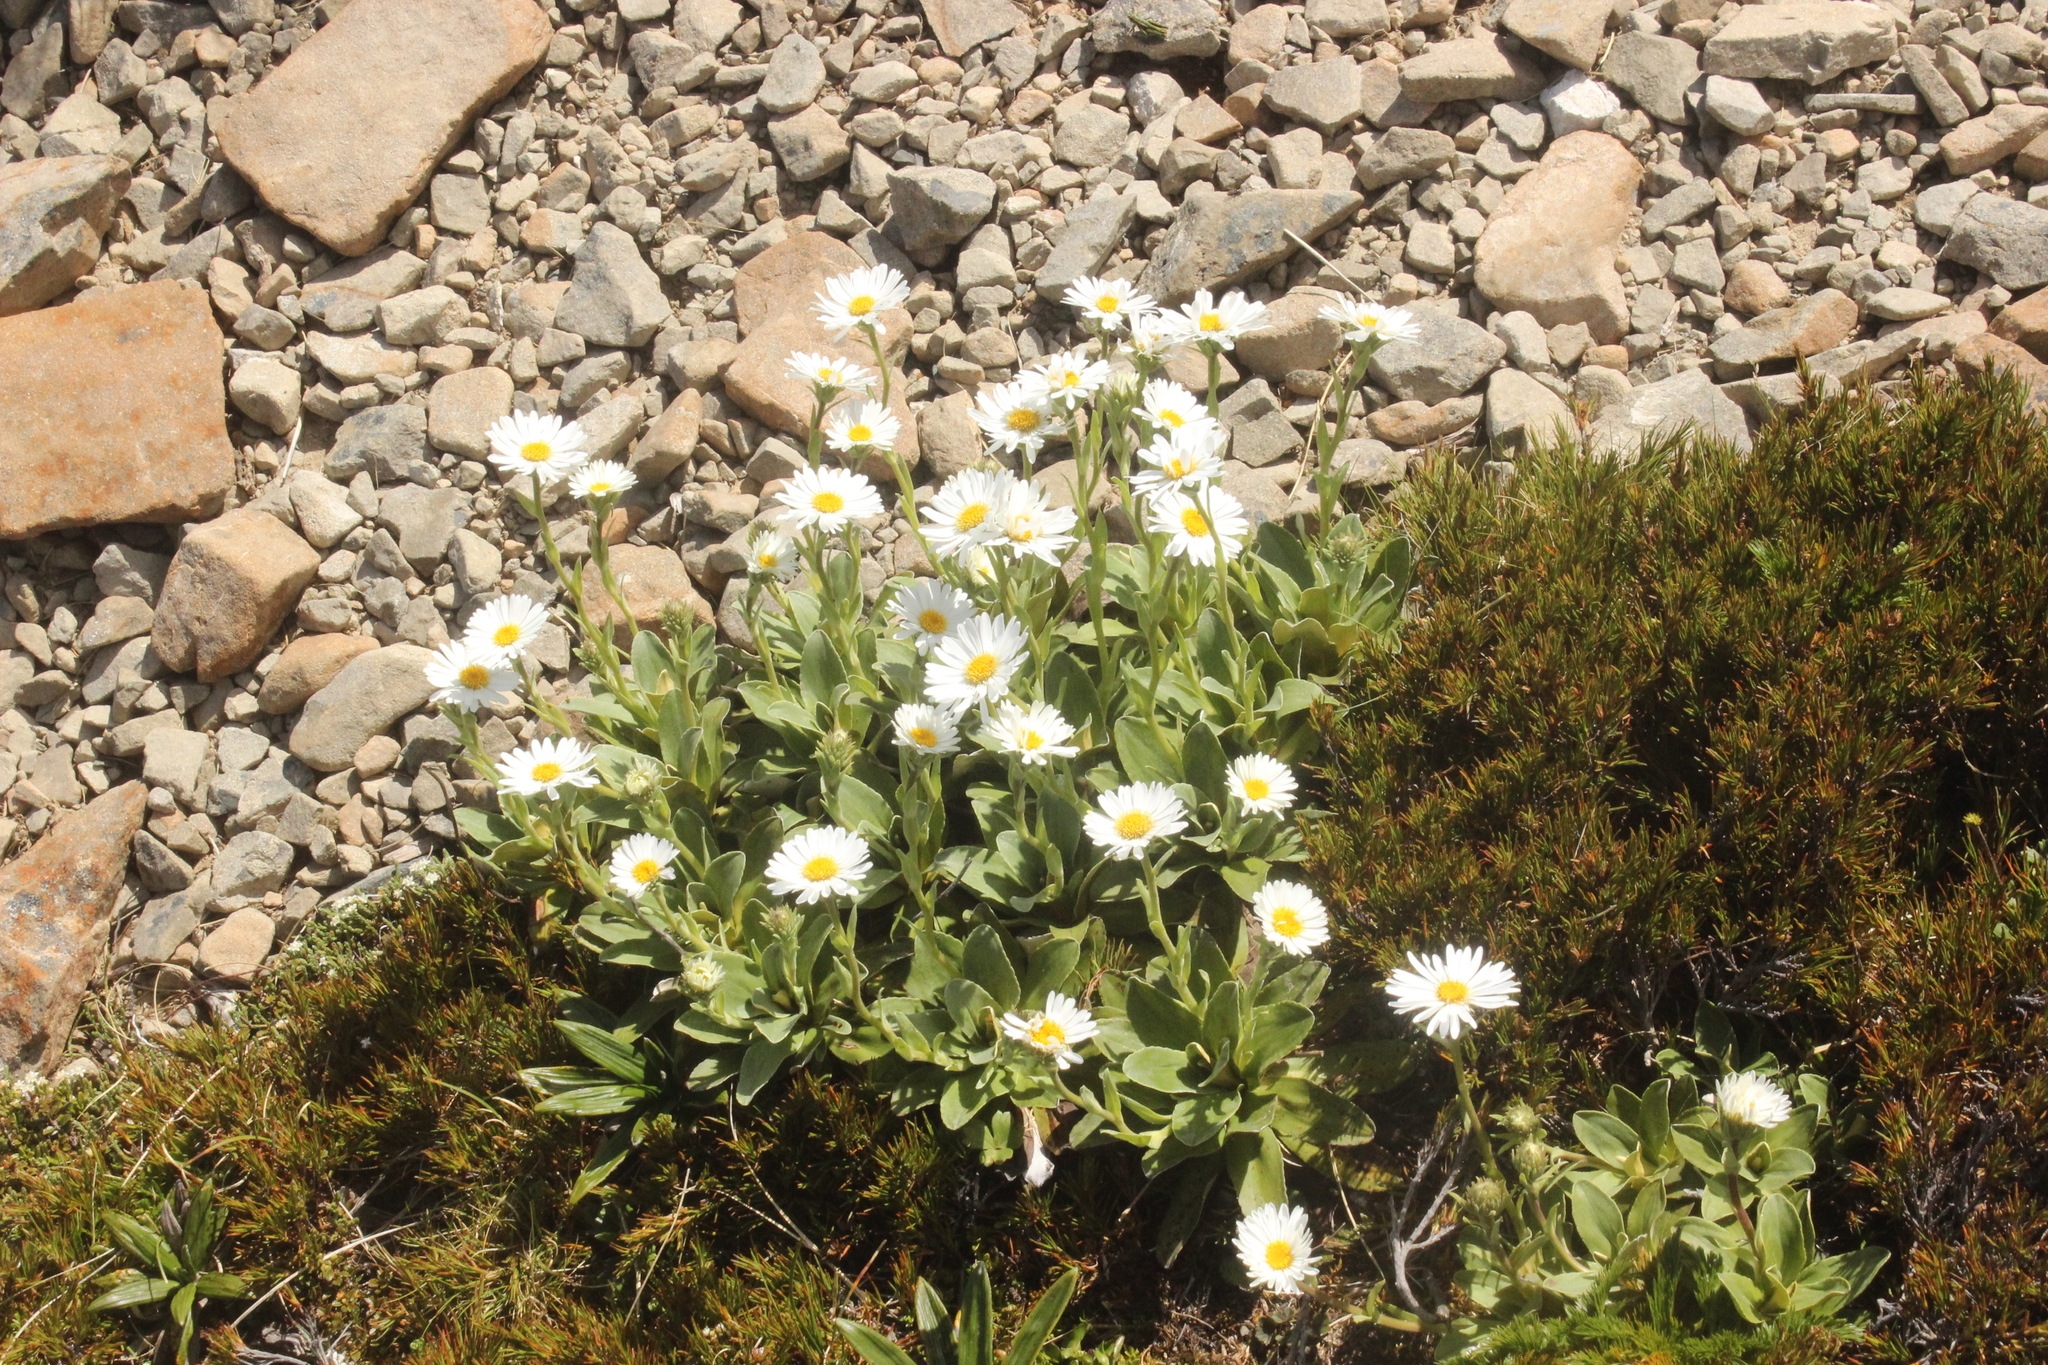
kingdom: Plantae
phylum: Tracheophyta
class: Magnoliopsida
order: Asterales
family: Asteraceae
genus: Celmisia
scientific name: Celmisia hieraciifolia
